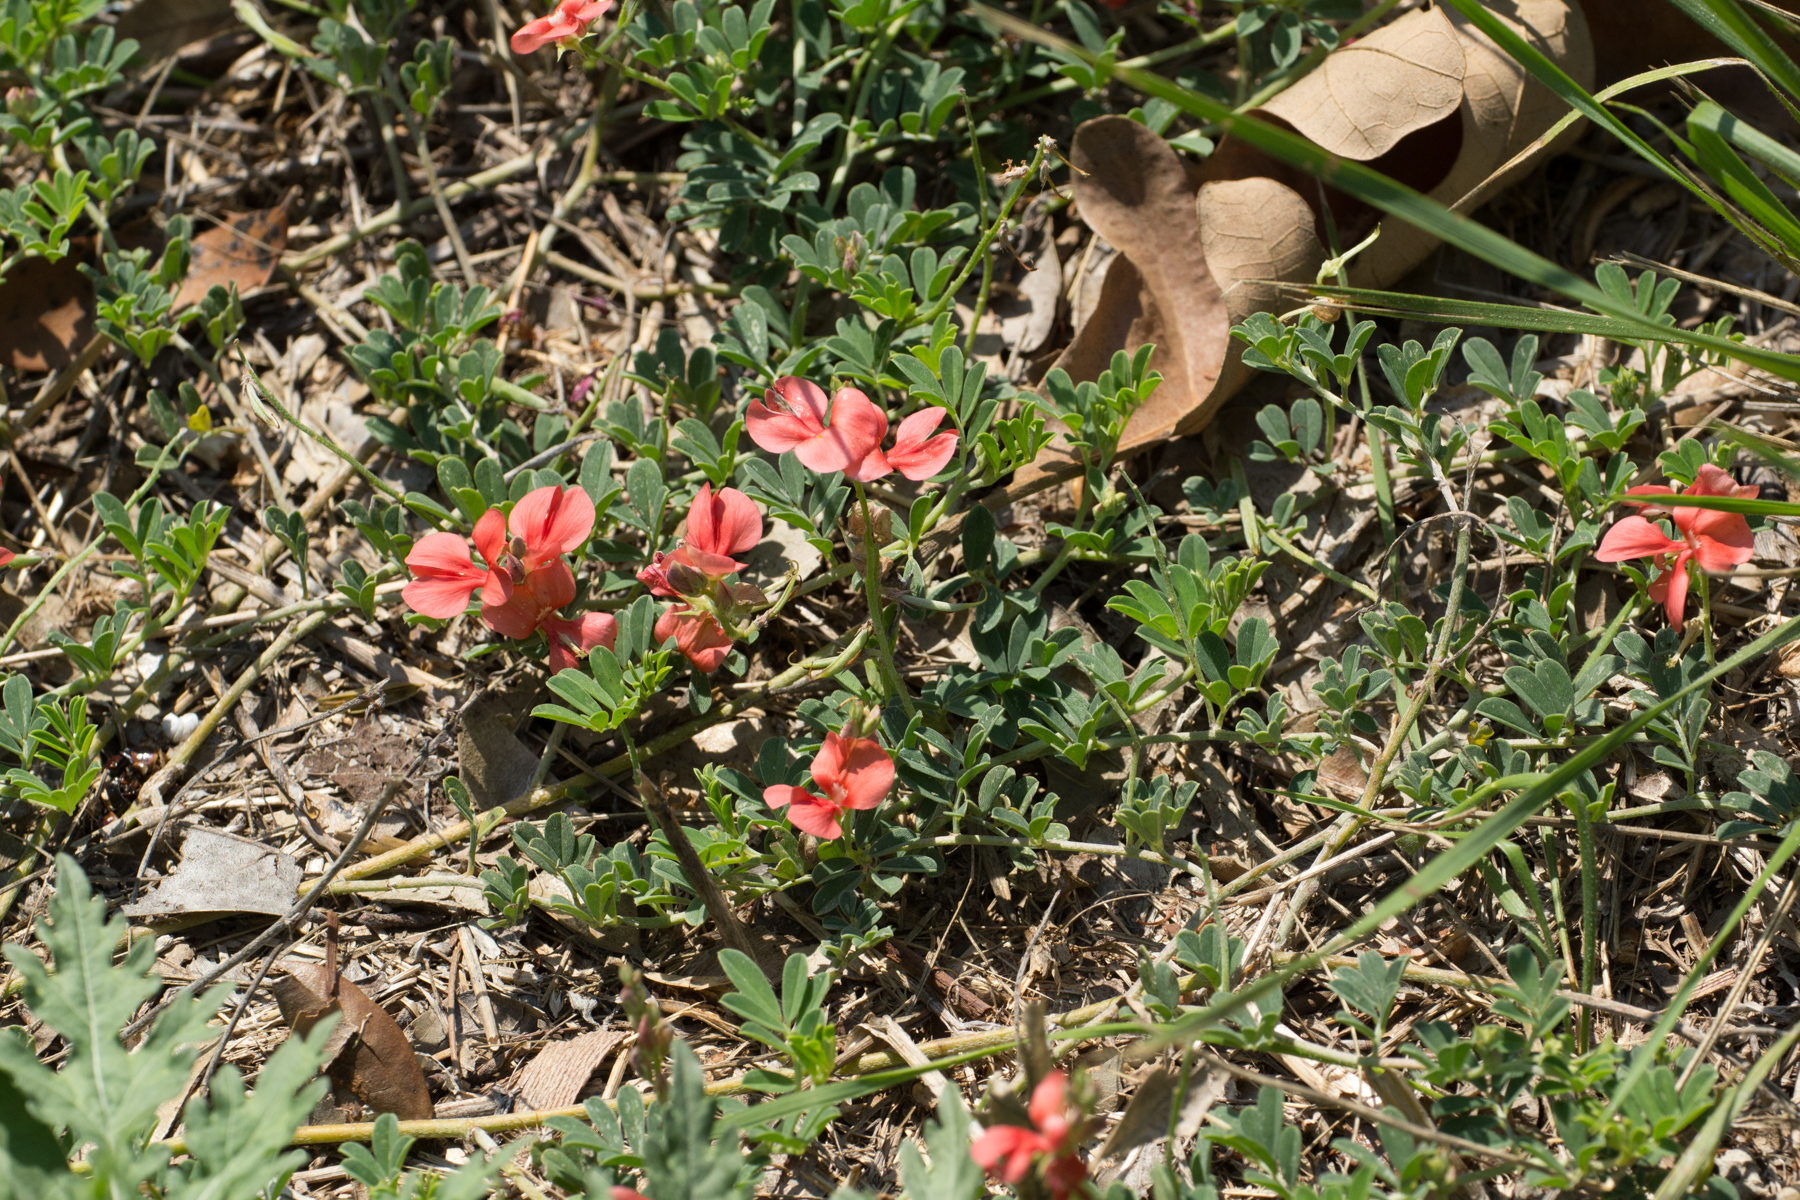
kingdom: Plantae
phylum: Tracheophyta
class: Magnoliopsida
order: Fabales
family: Fabaceae
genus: Indigofera
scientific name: Indigofera miniata
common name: Coast indigo
